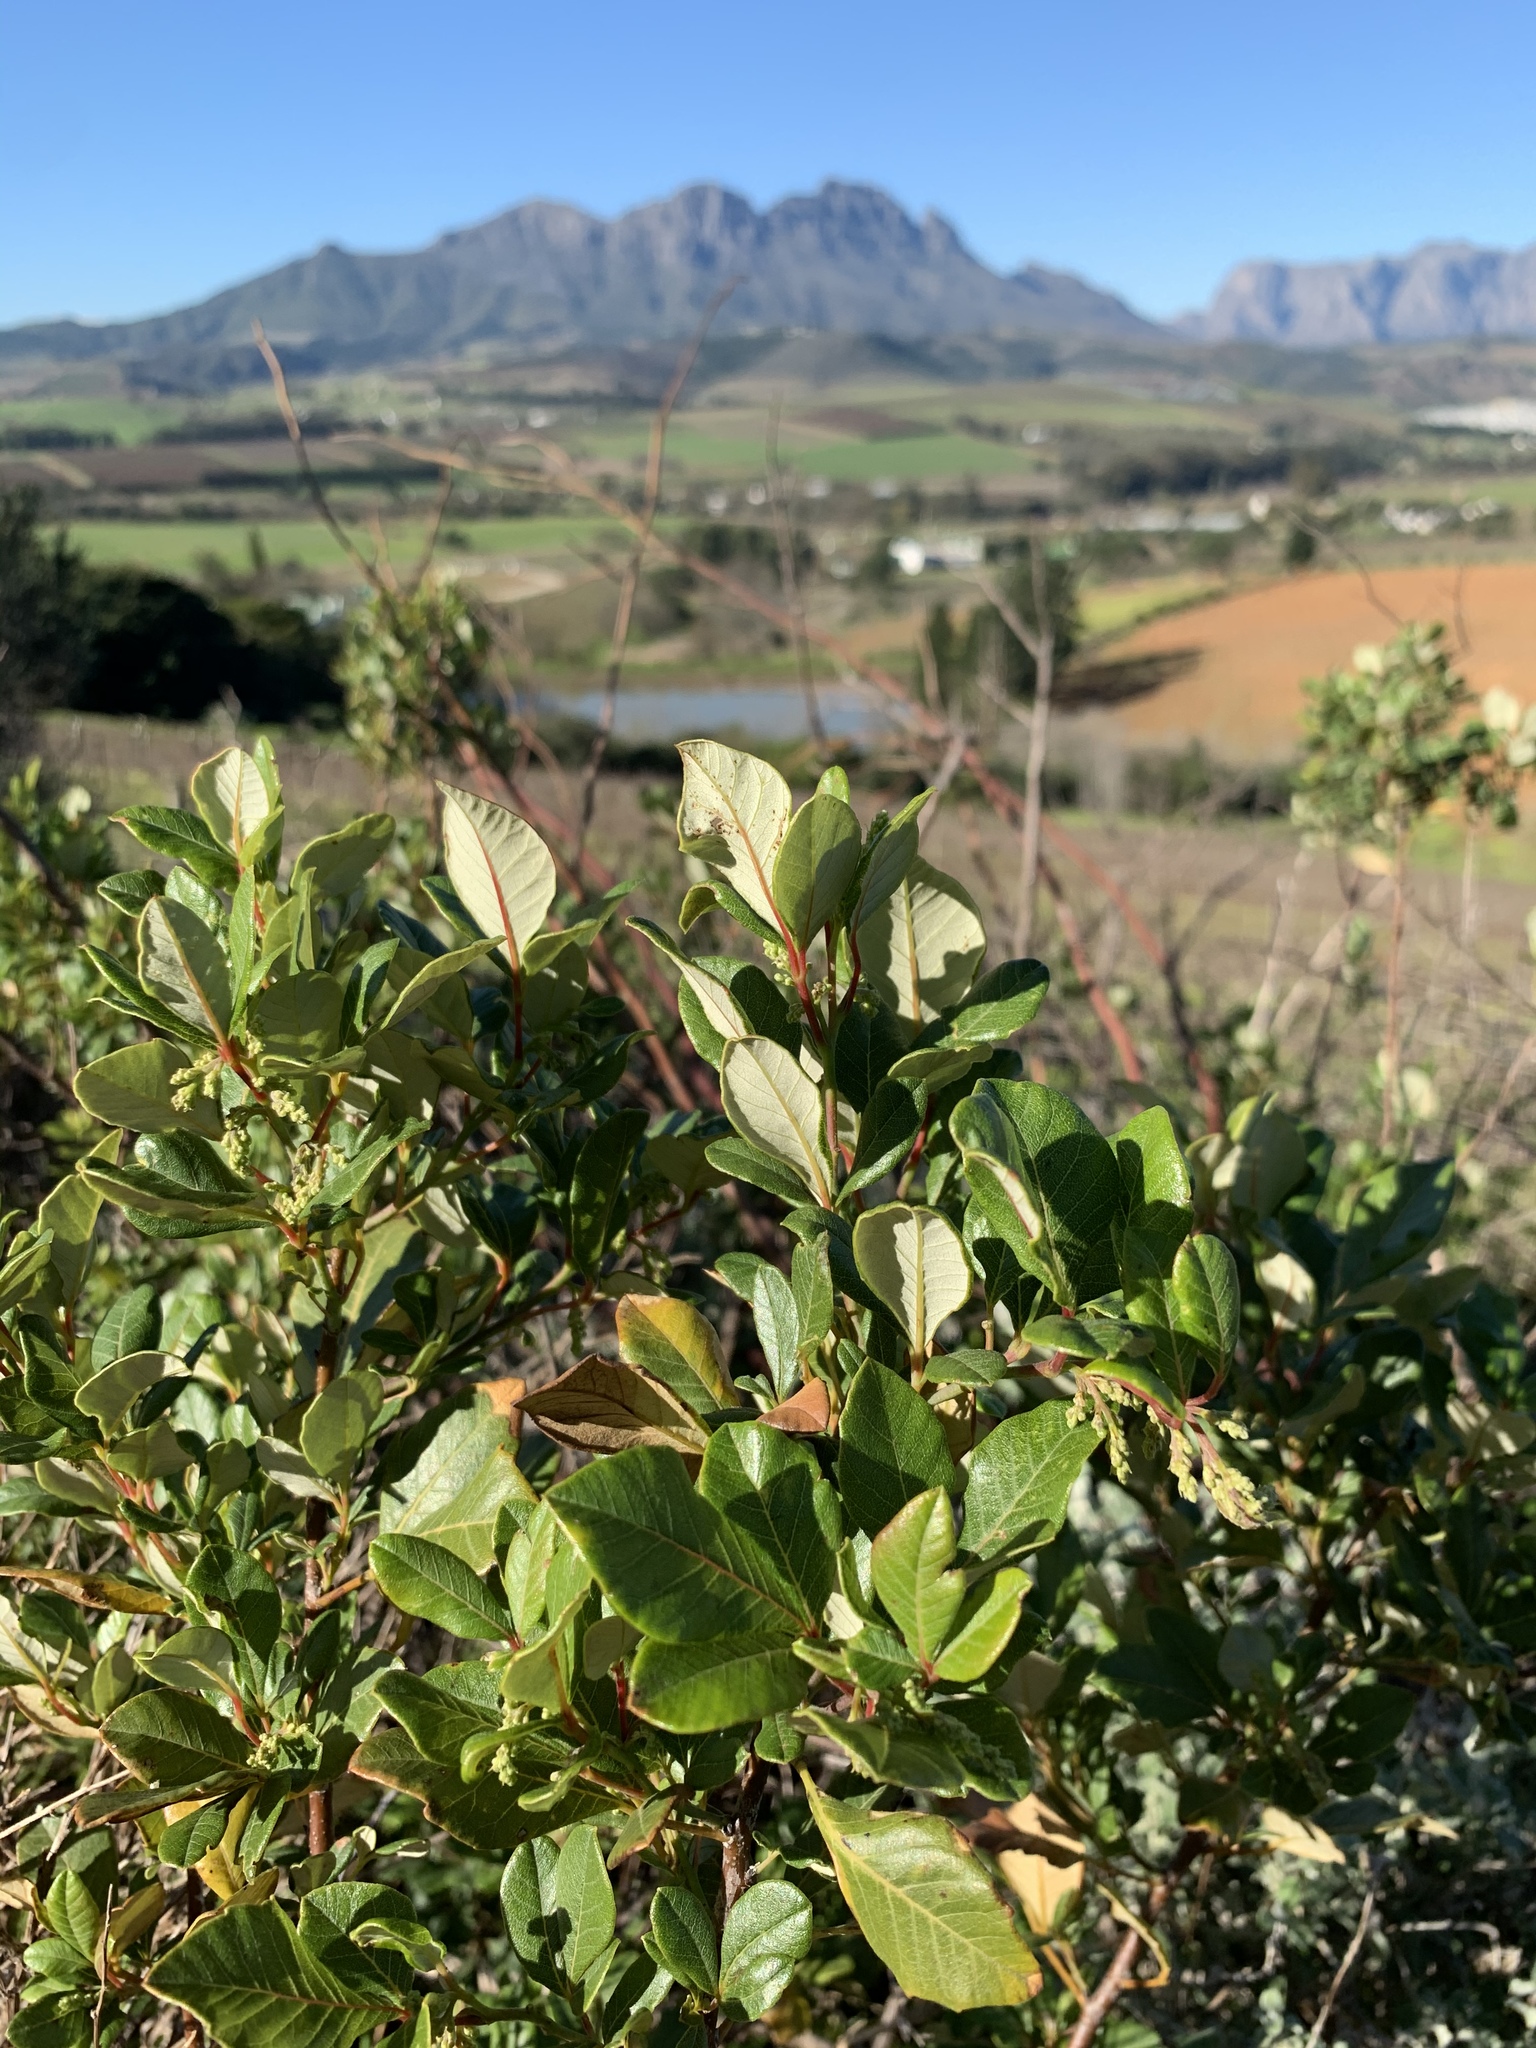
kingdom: Plantae
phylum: Tracheophyta
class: Magnoliopsida
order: Sapindales
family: Anacardiaceae
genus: Searsia
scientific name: Searsia tomentosa
